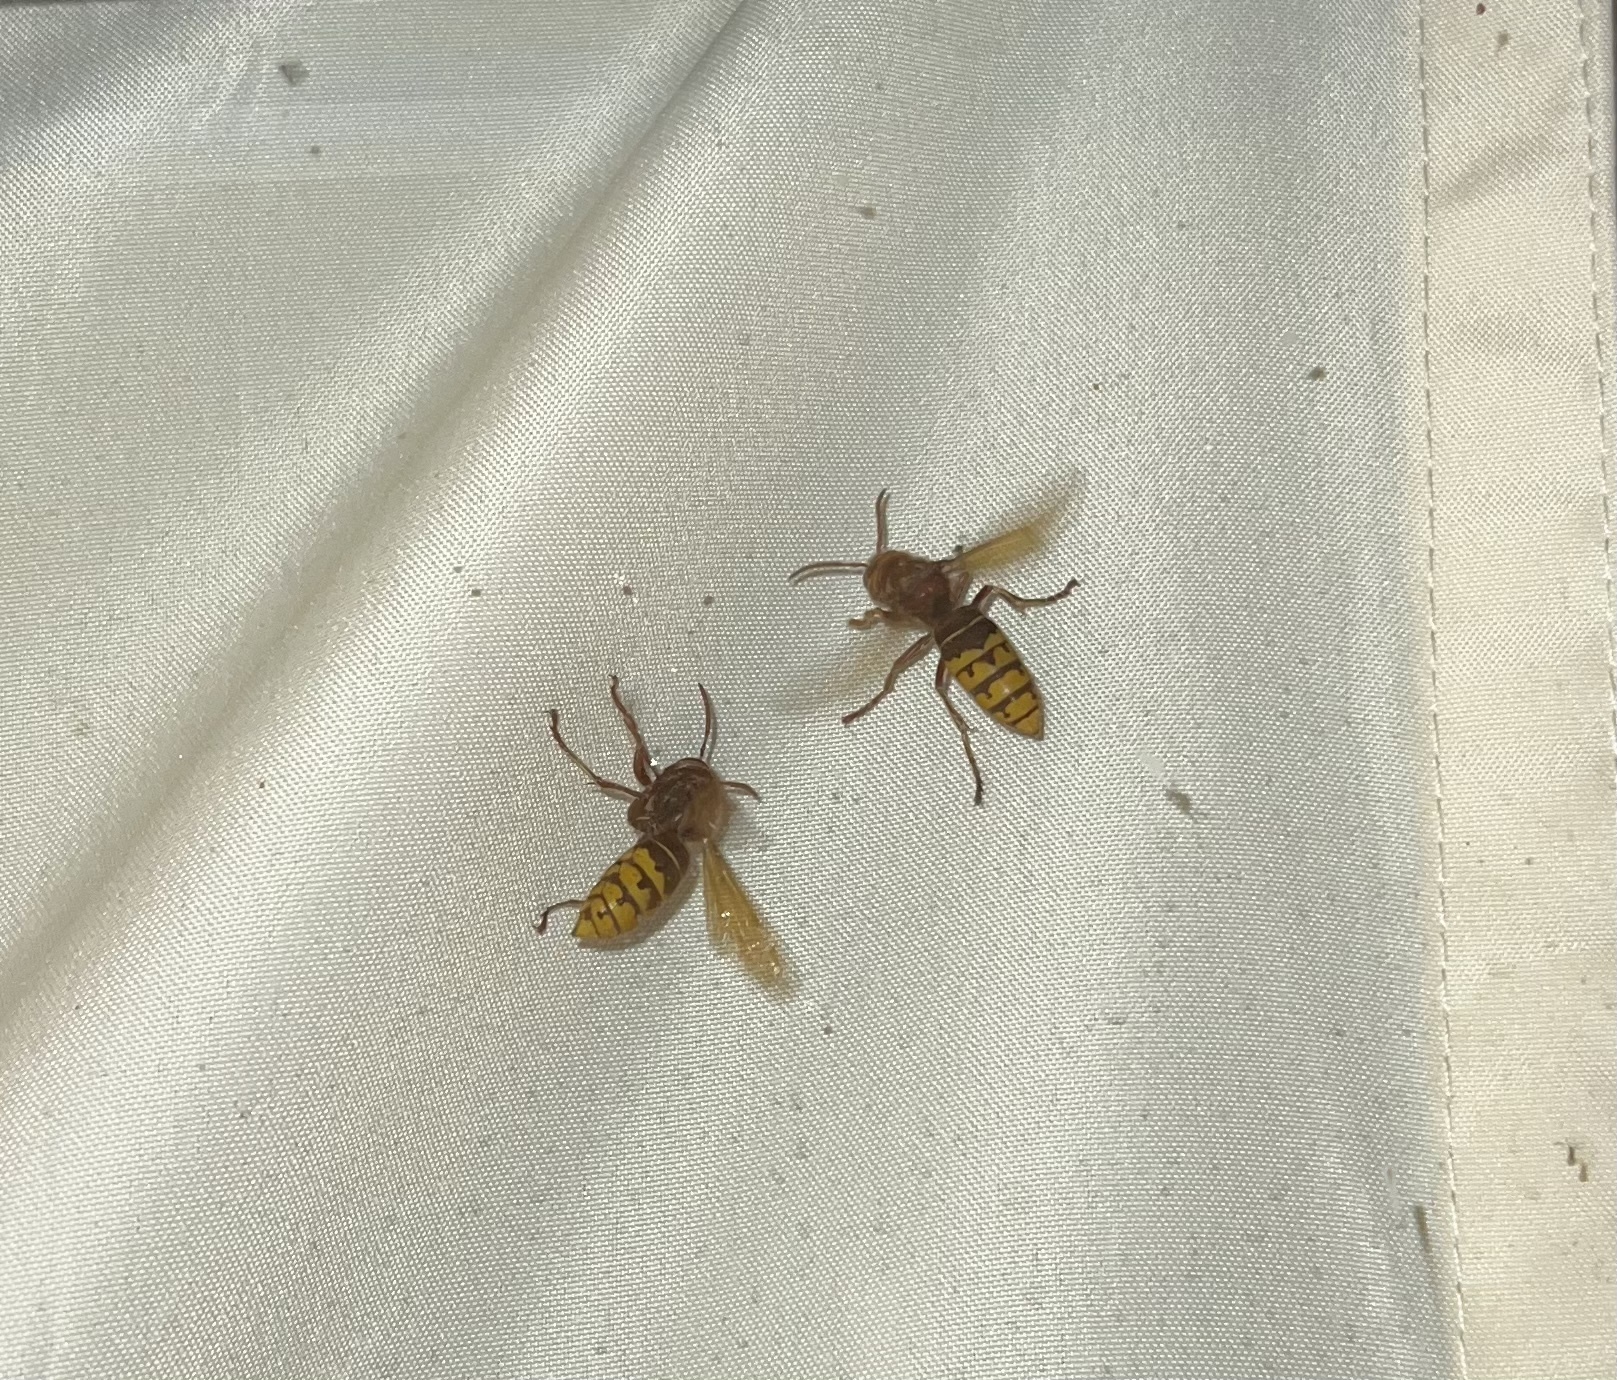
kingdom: Animalia
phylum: Arthropoda
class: Insecta
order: Hymenoptera
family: Vespidae
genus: Vespa
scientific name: Vespa crabro
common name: Hornet
